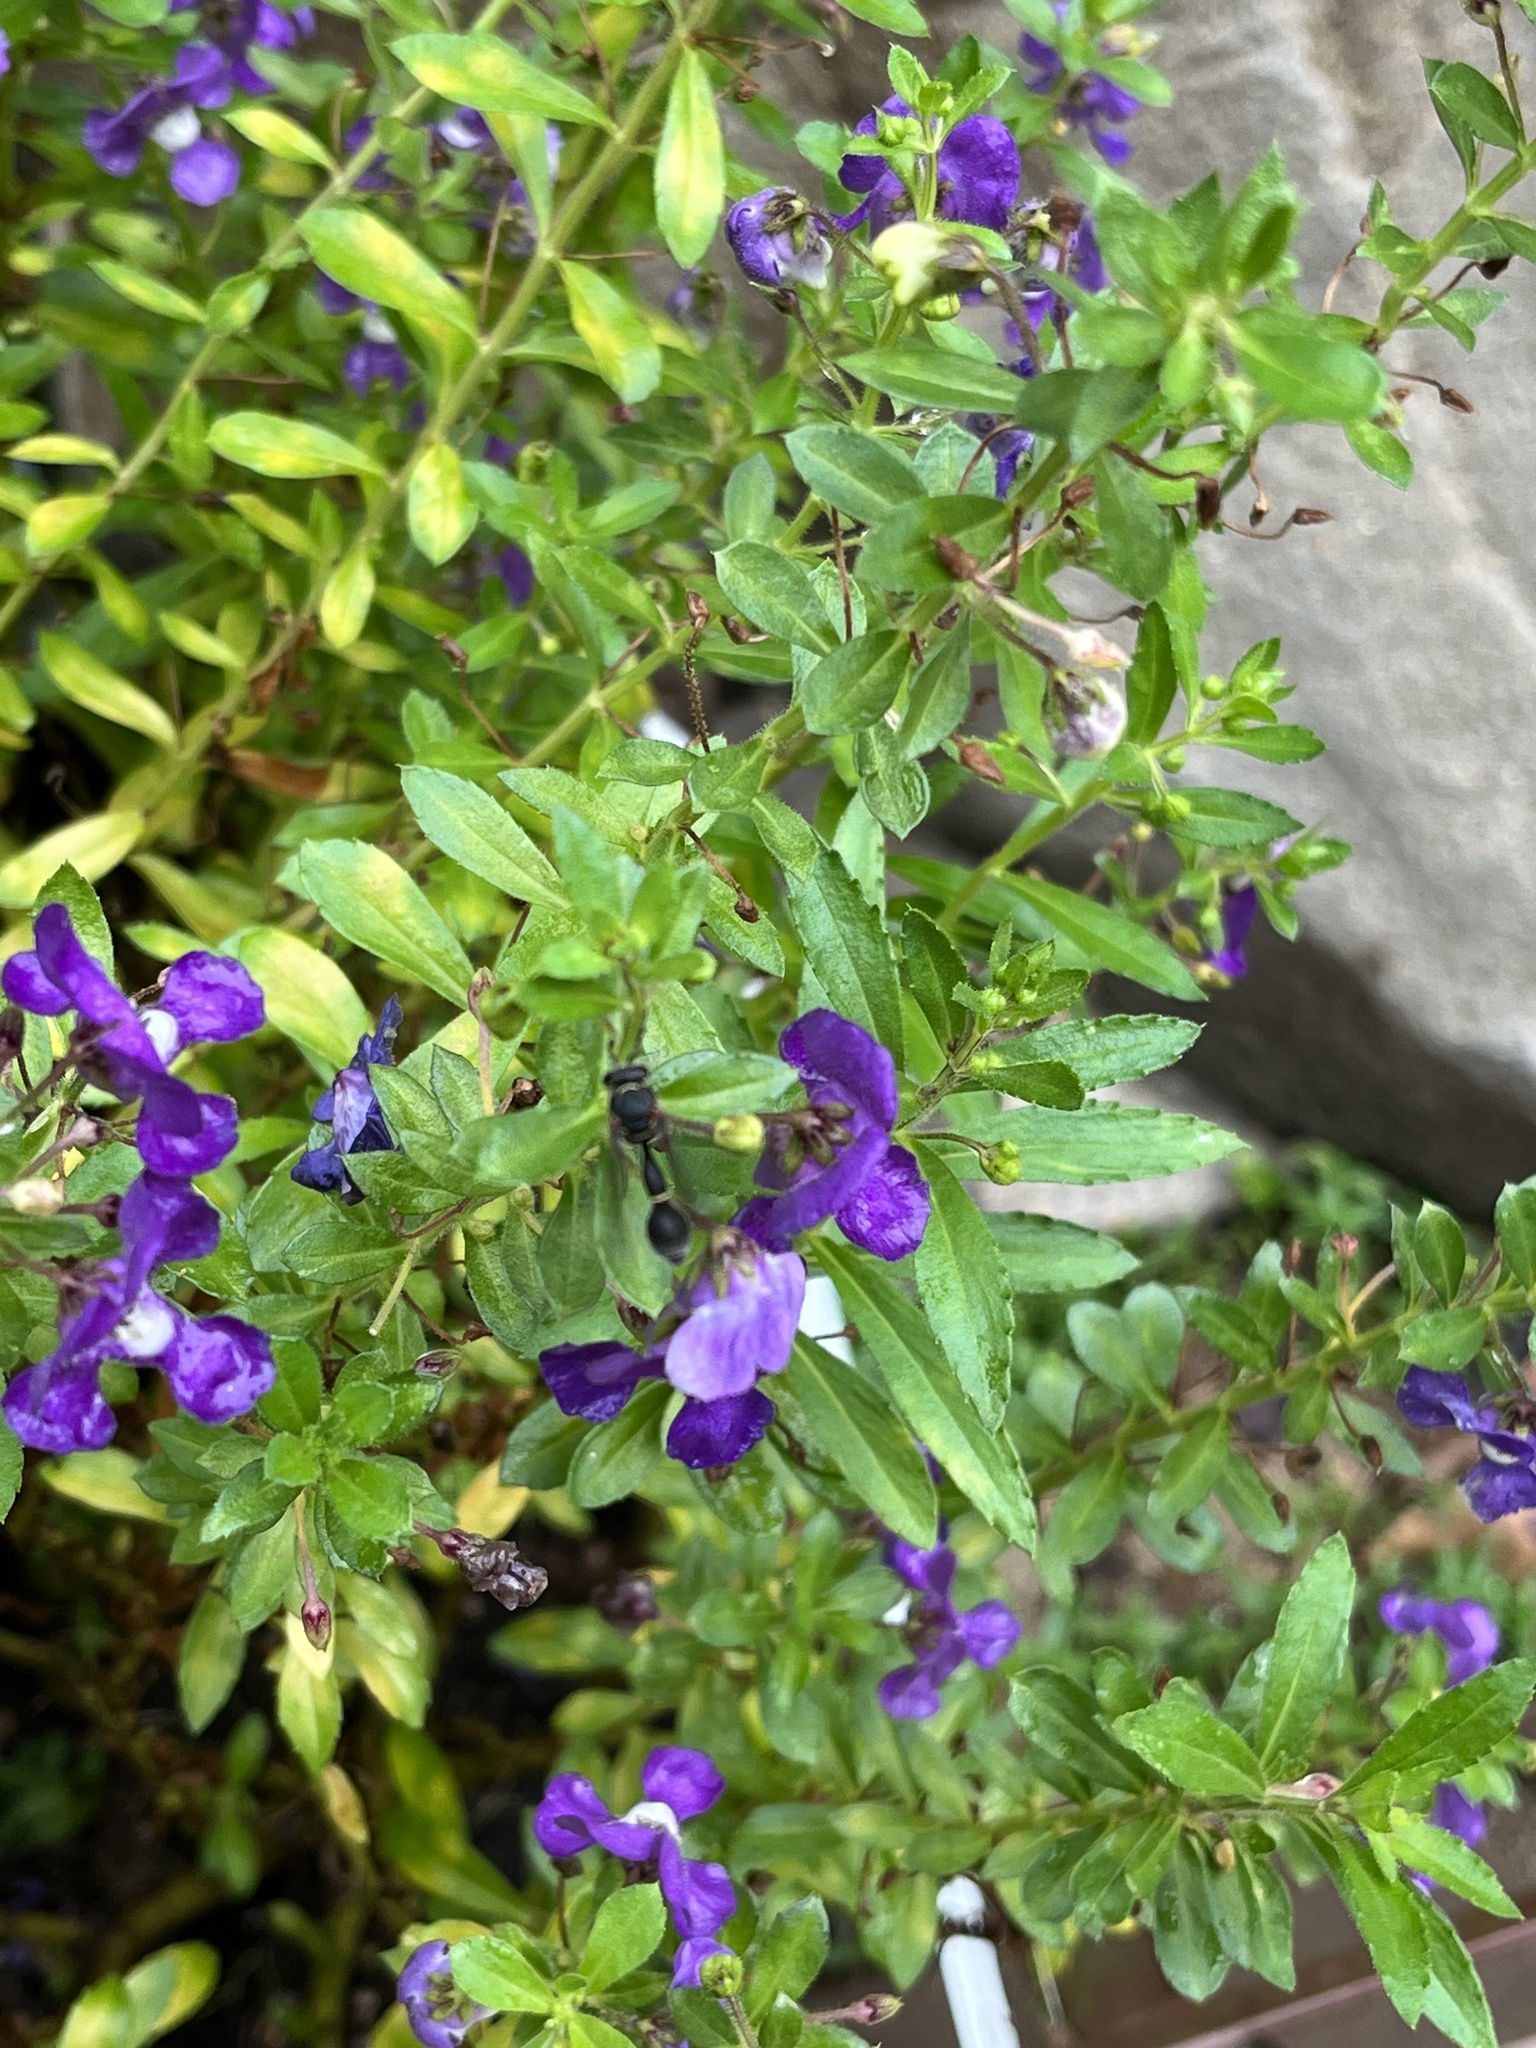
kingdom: Animalia
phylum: Arthropoda
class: Insecta
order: Hymenoptera
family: Vespidae
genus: Eumenes
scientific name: Eumenes punctatus
